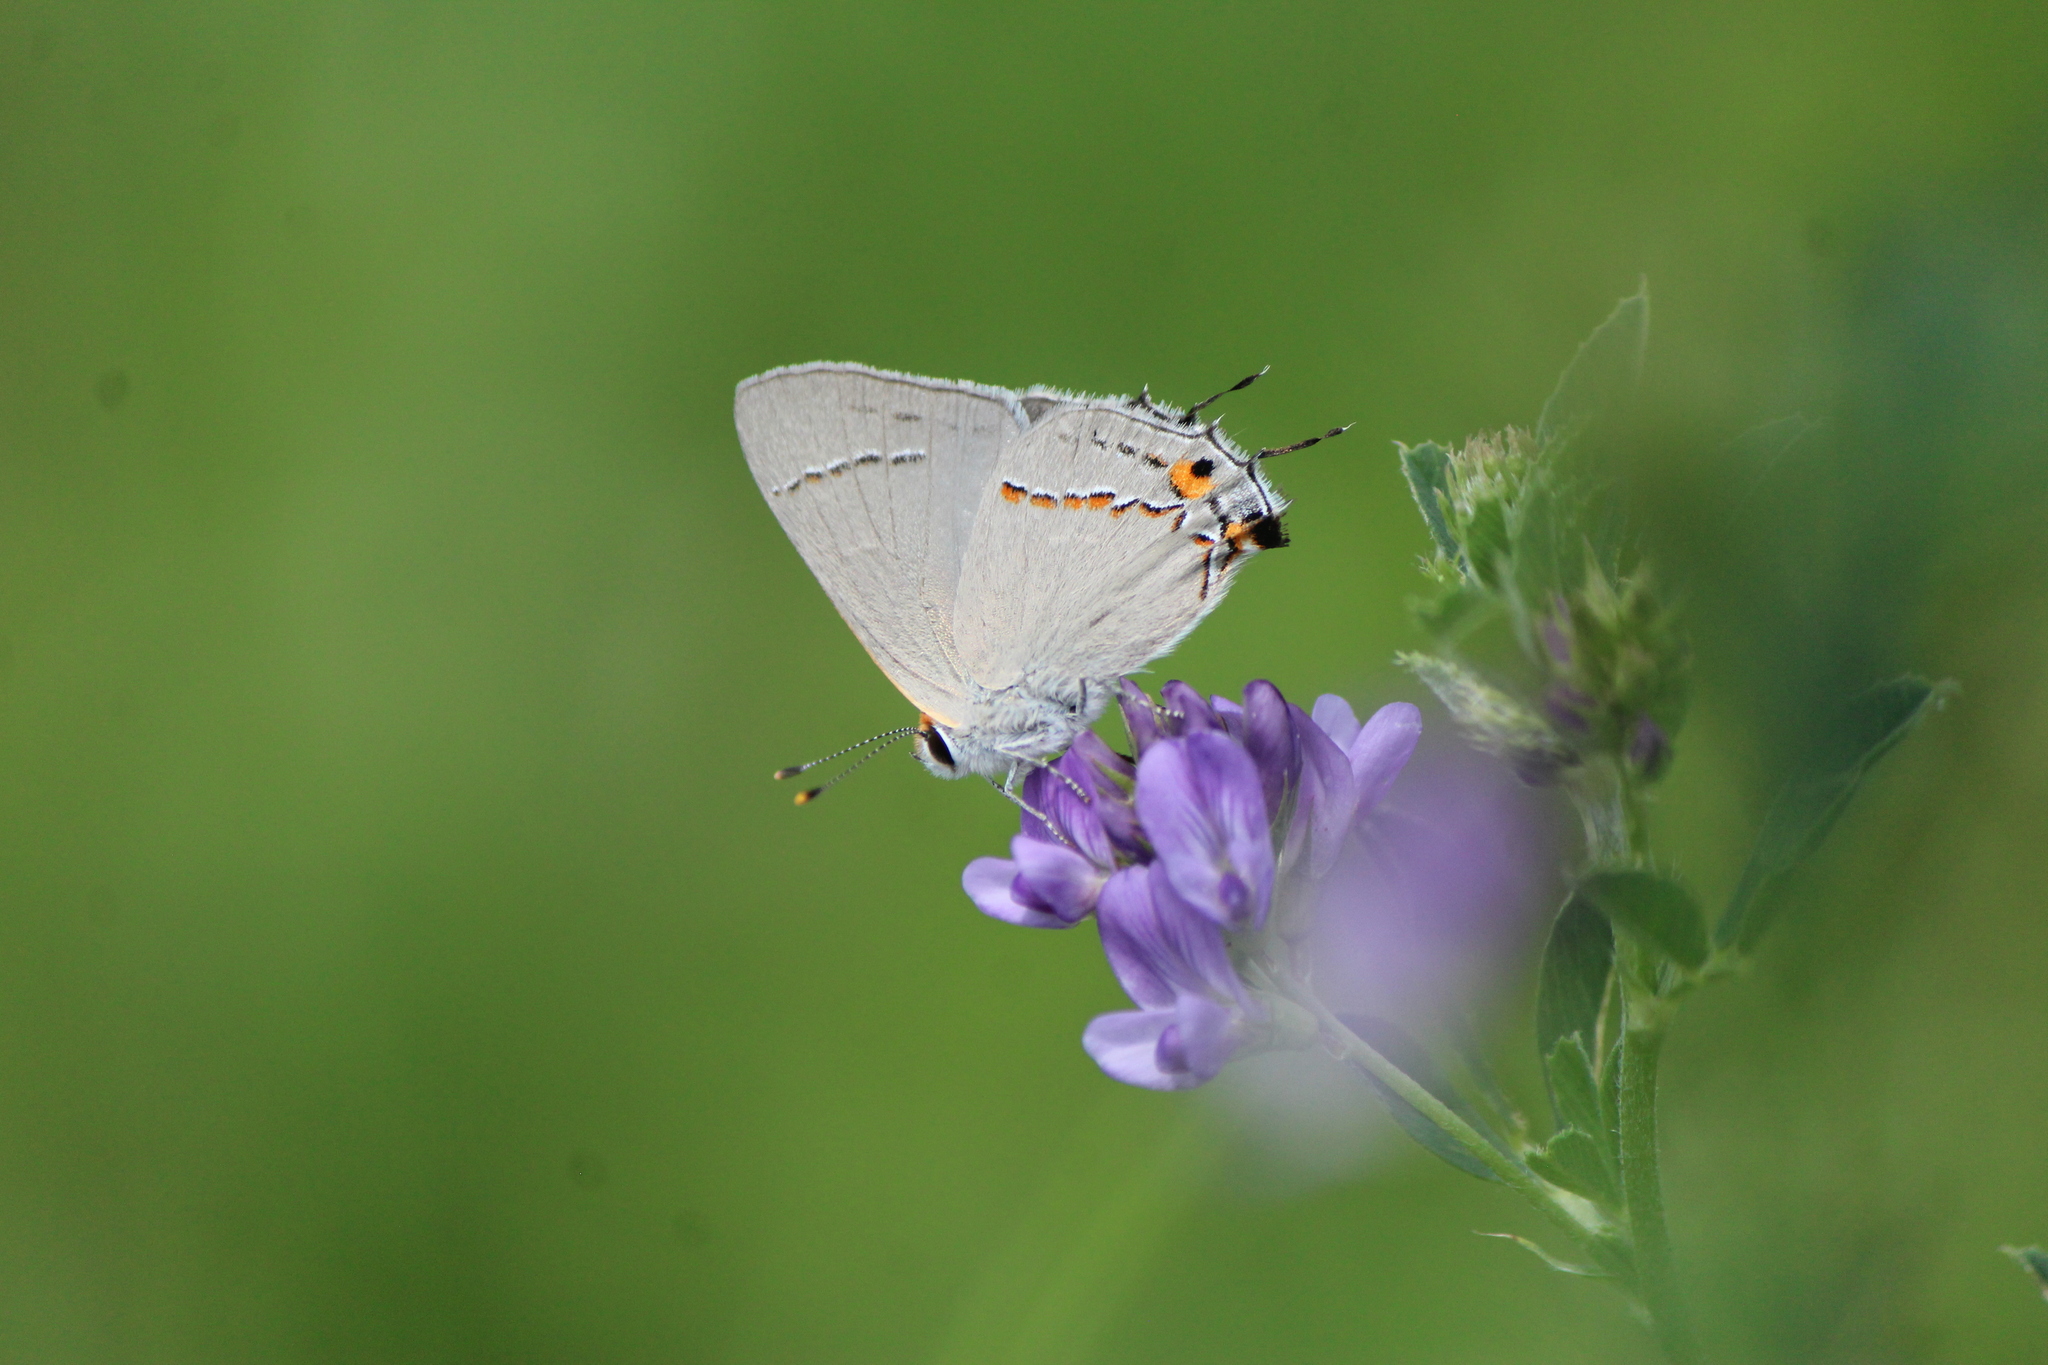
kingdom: Animalia
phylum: Arthropoda
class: Insecta
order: Lepidoptera
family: Lycaenidae
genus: Strymon
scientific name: Strymon melinus
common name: Gray hairstreak
